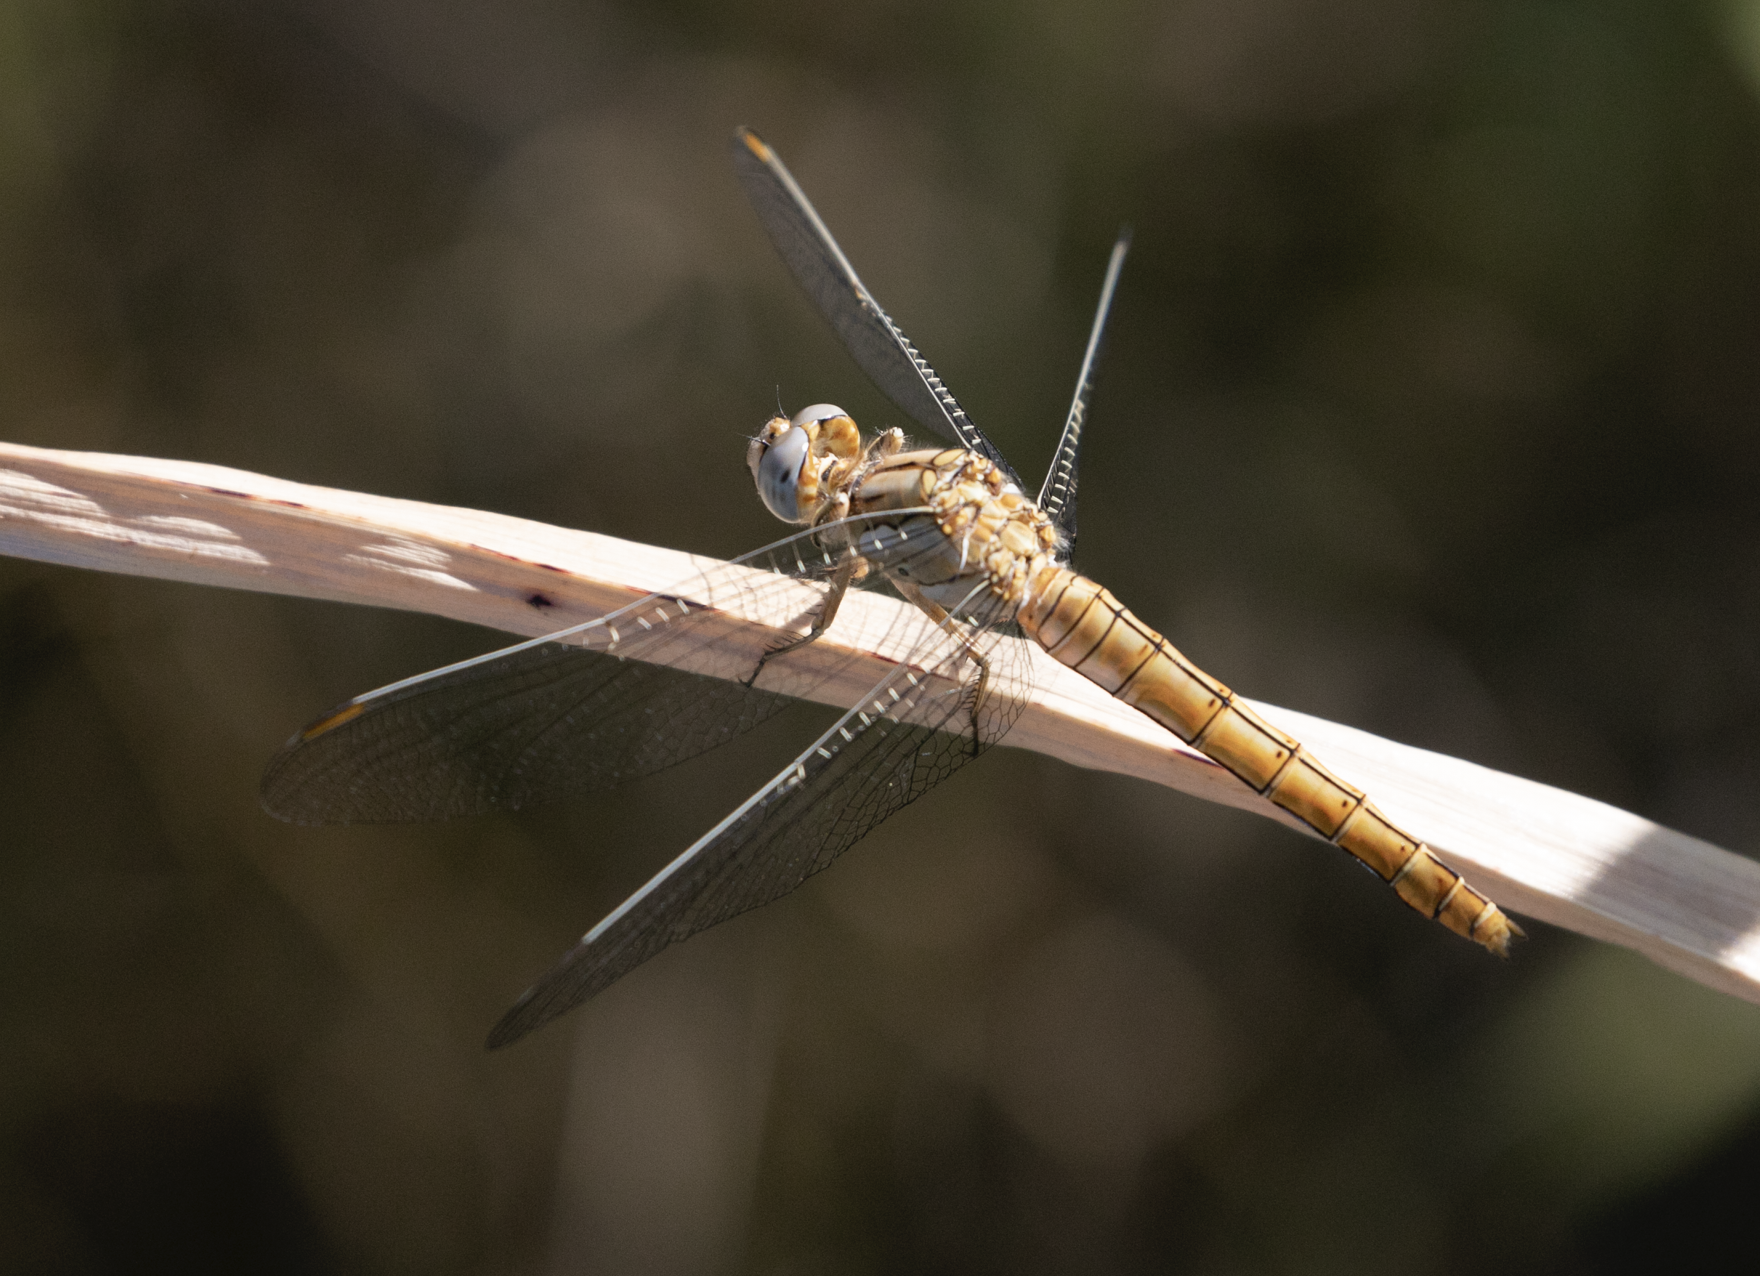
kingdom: Animalia
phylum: Arthropoda
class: Insecta
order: Odonata
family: Libellulidae
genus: Orthetrum
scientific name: Orthetrum brunneum
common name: Southern skimmer
